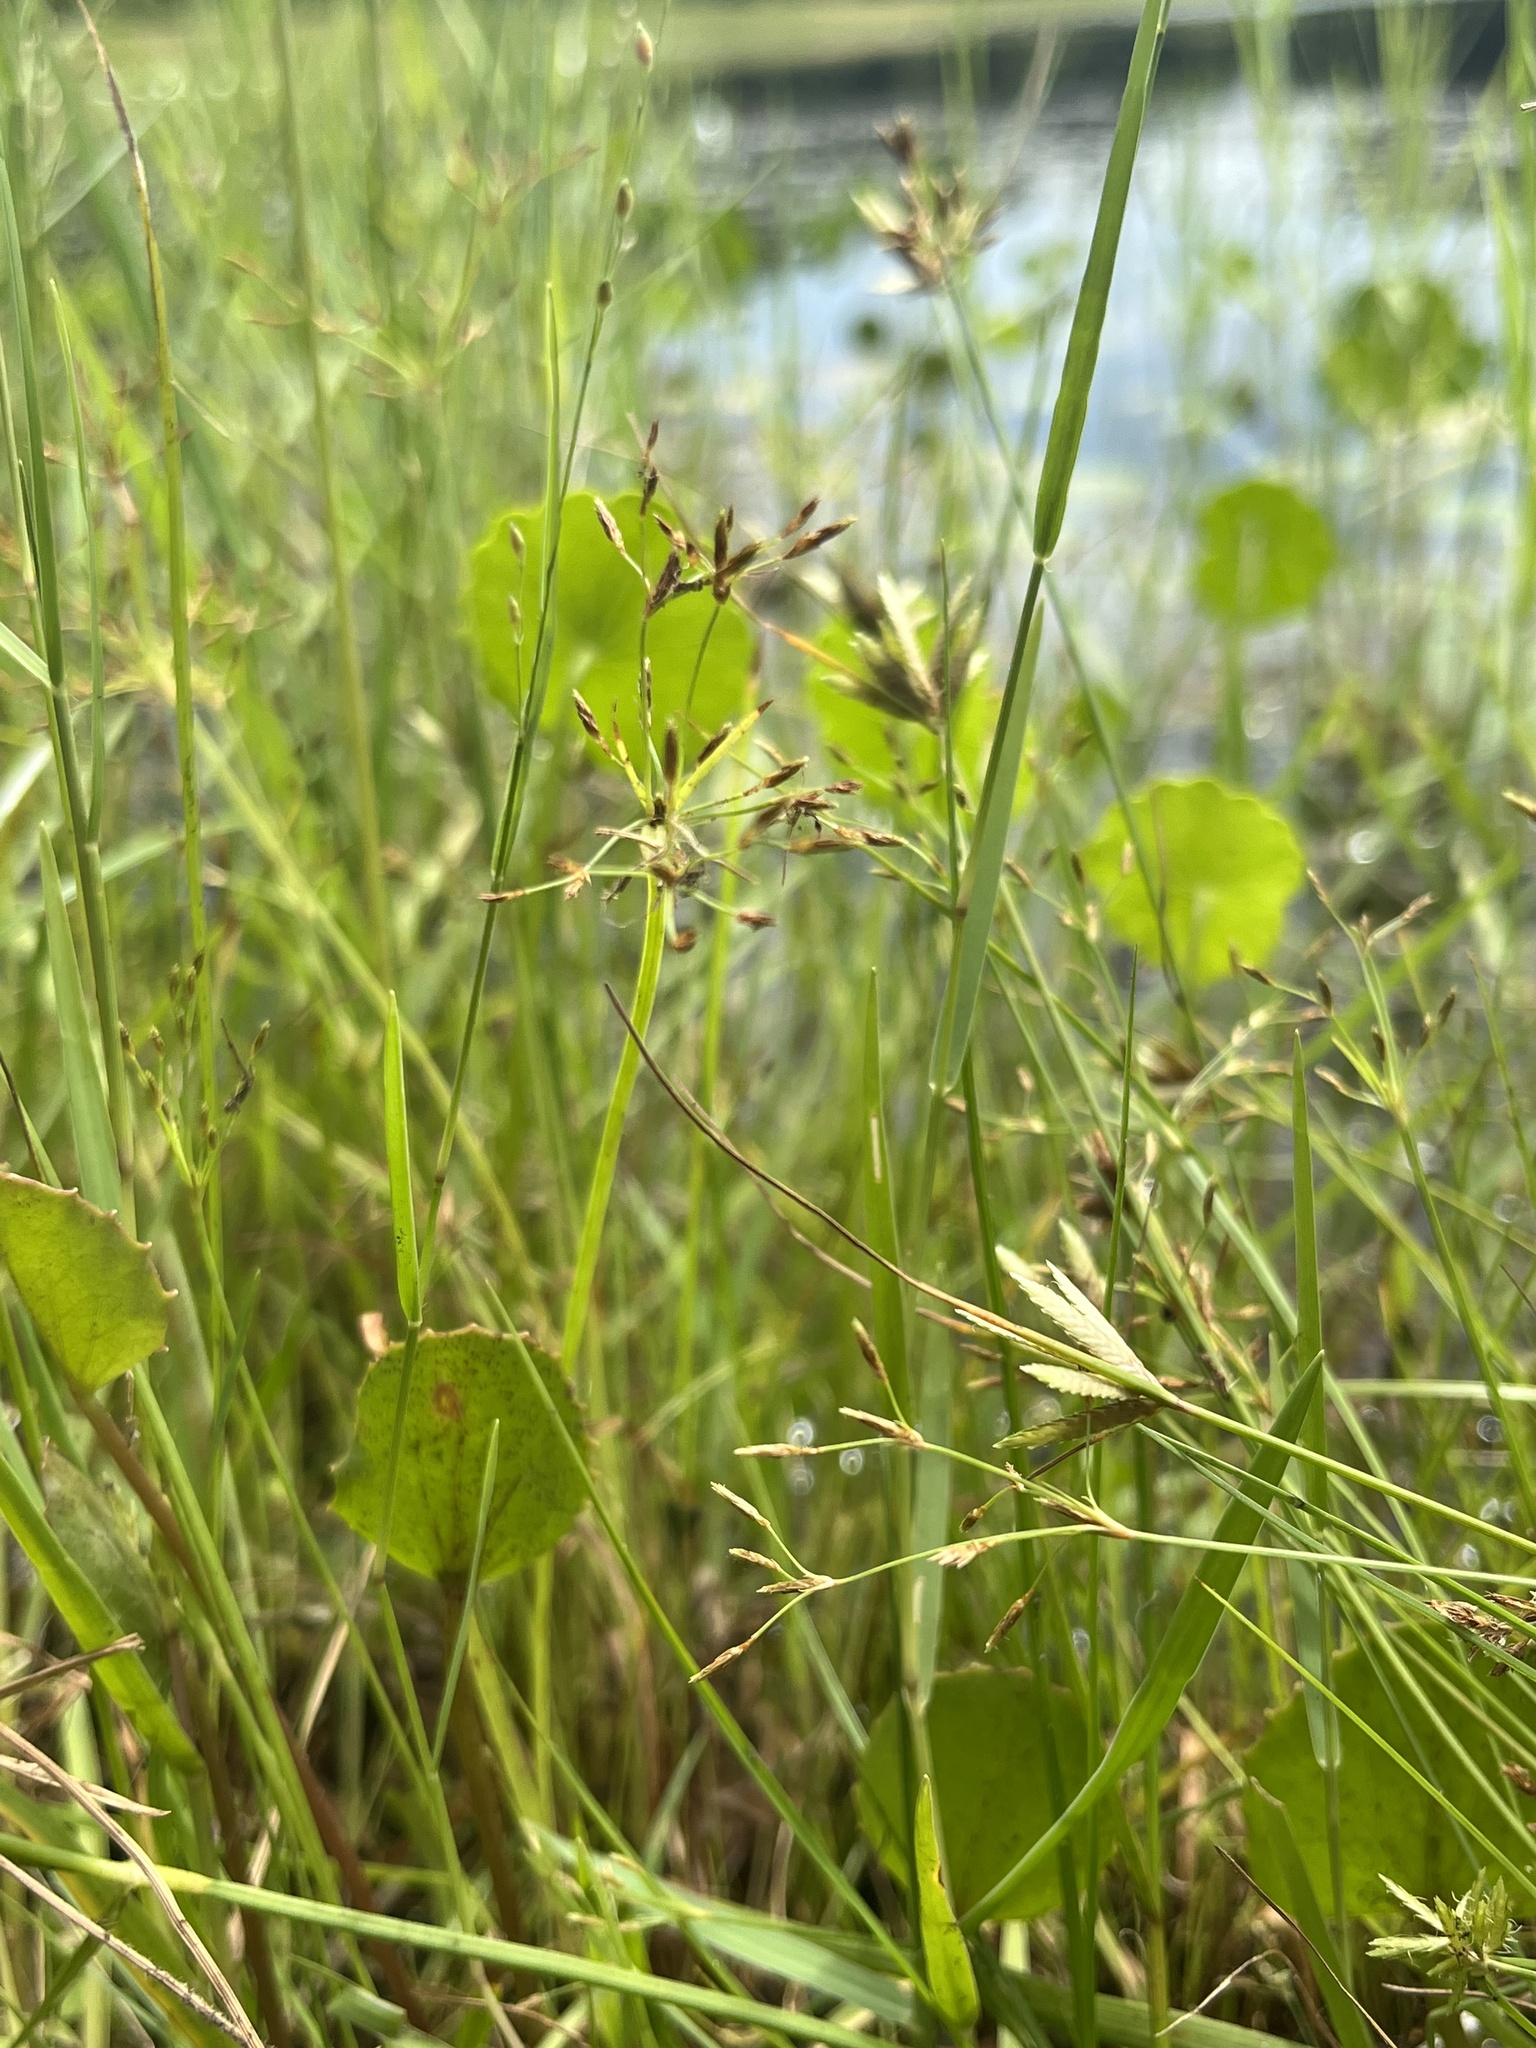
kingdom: Plantae
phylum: Tracheophyta
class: Liliopsida
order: Poales
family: Cyperaceae
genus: Fimbristylis
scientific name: Fimbristylis autumnalis
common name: Slender fimbristylis
